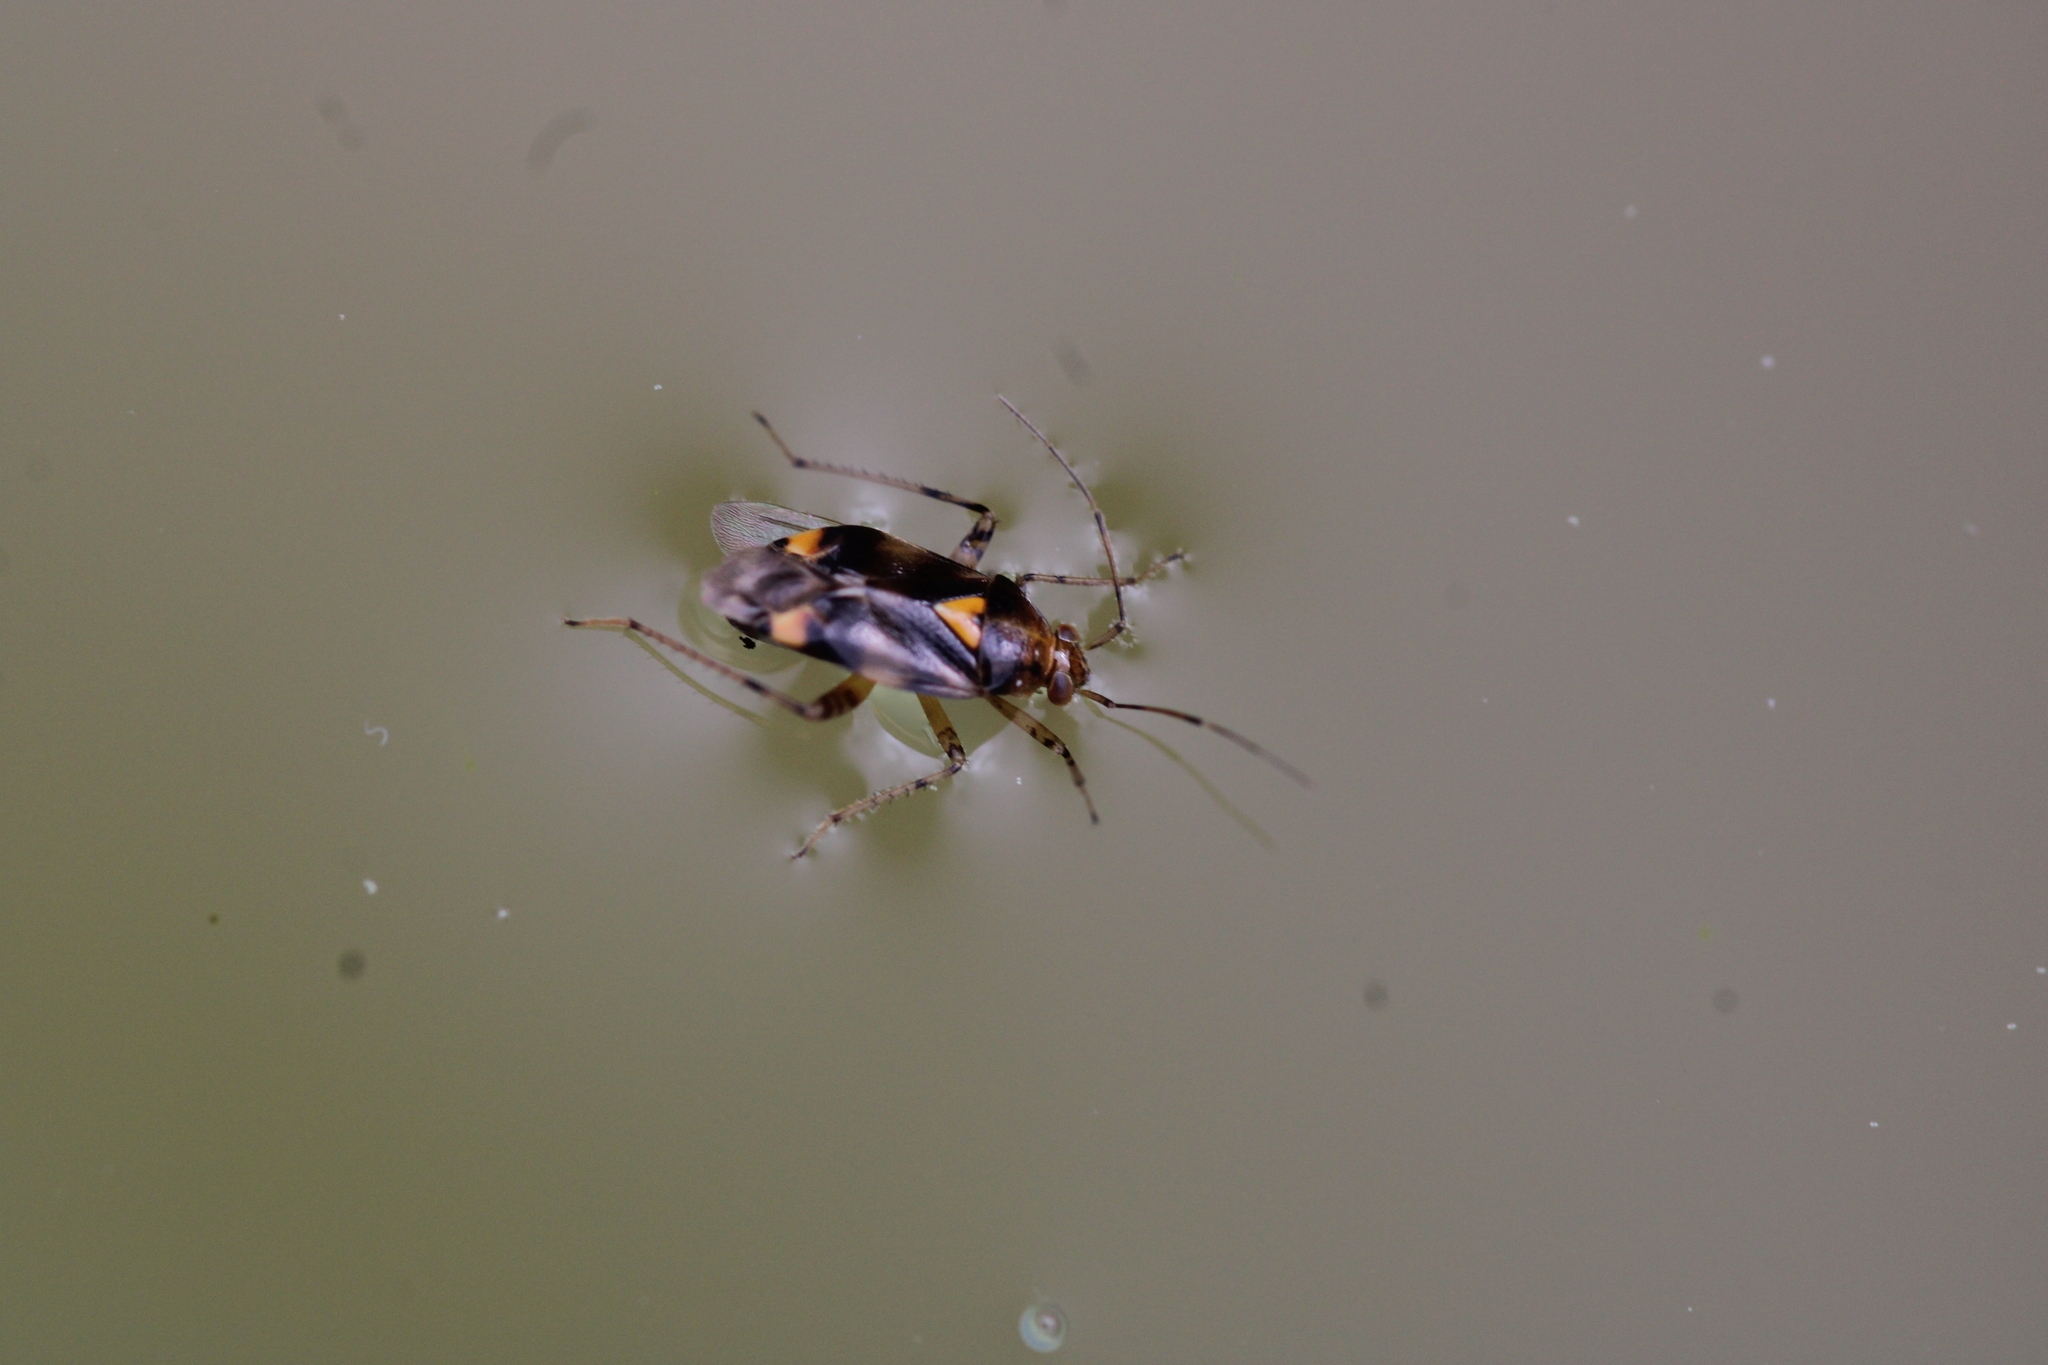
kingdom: Animalia
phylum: Arthropoda
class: Insecta
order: Hemiptera
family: Miridae
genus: Liocoris
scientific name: Liocoris tripustulatus
